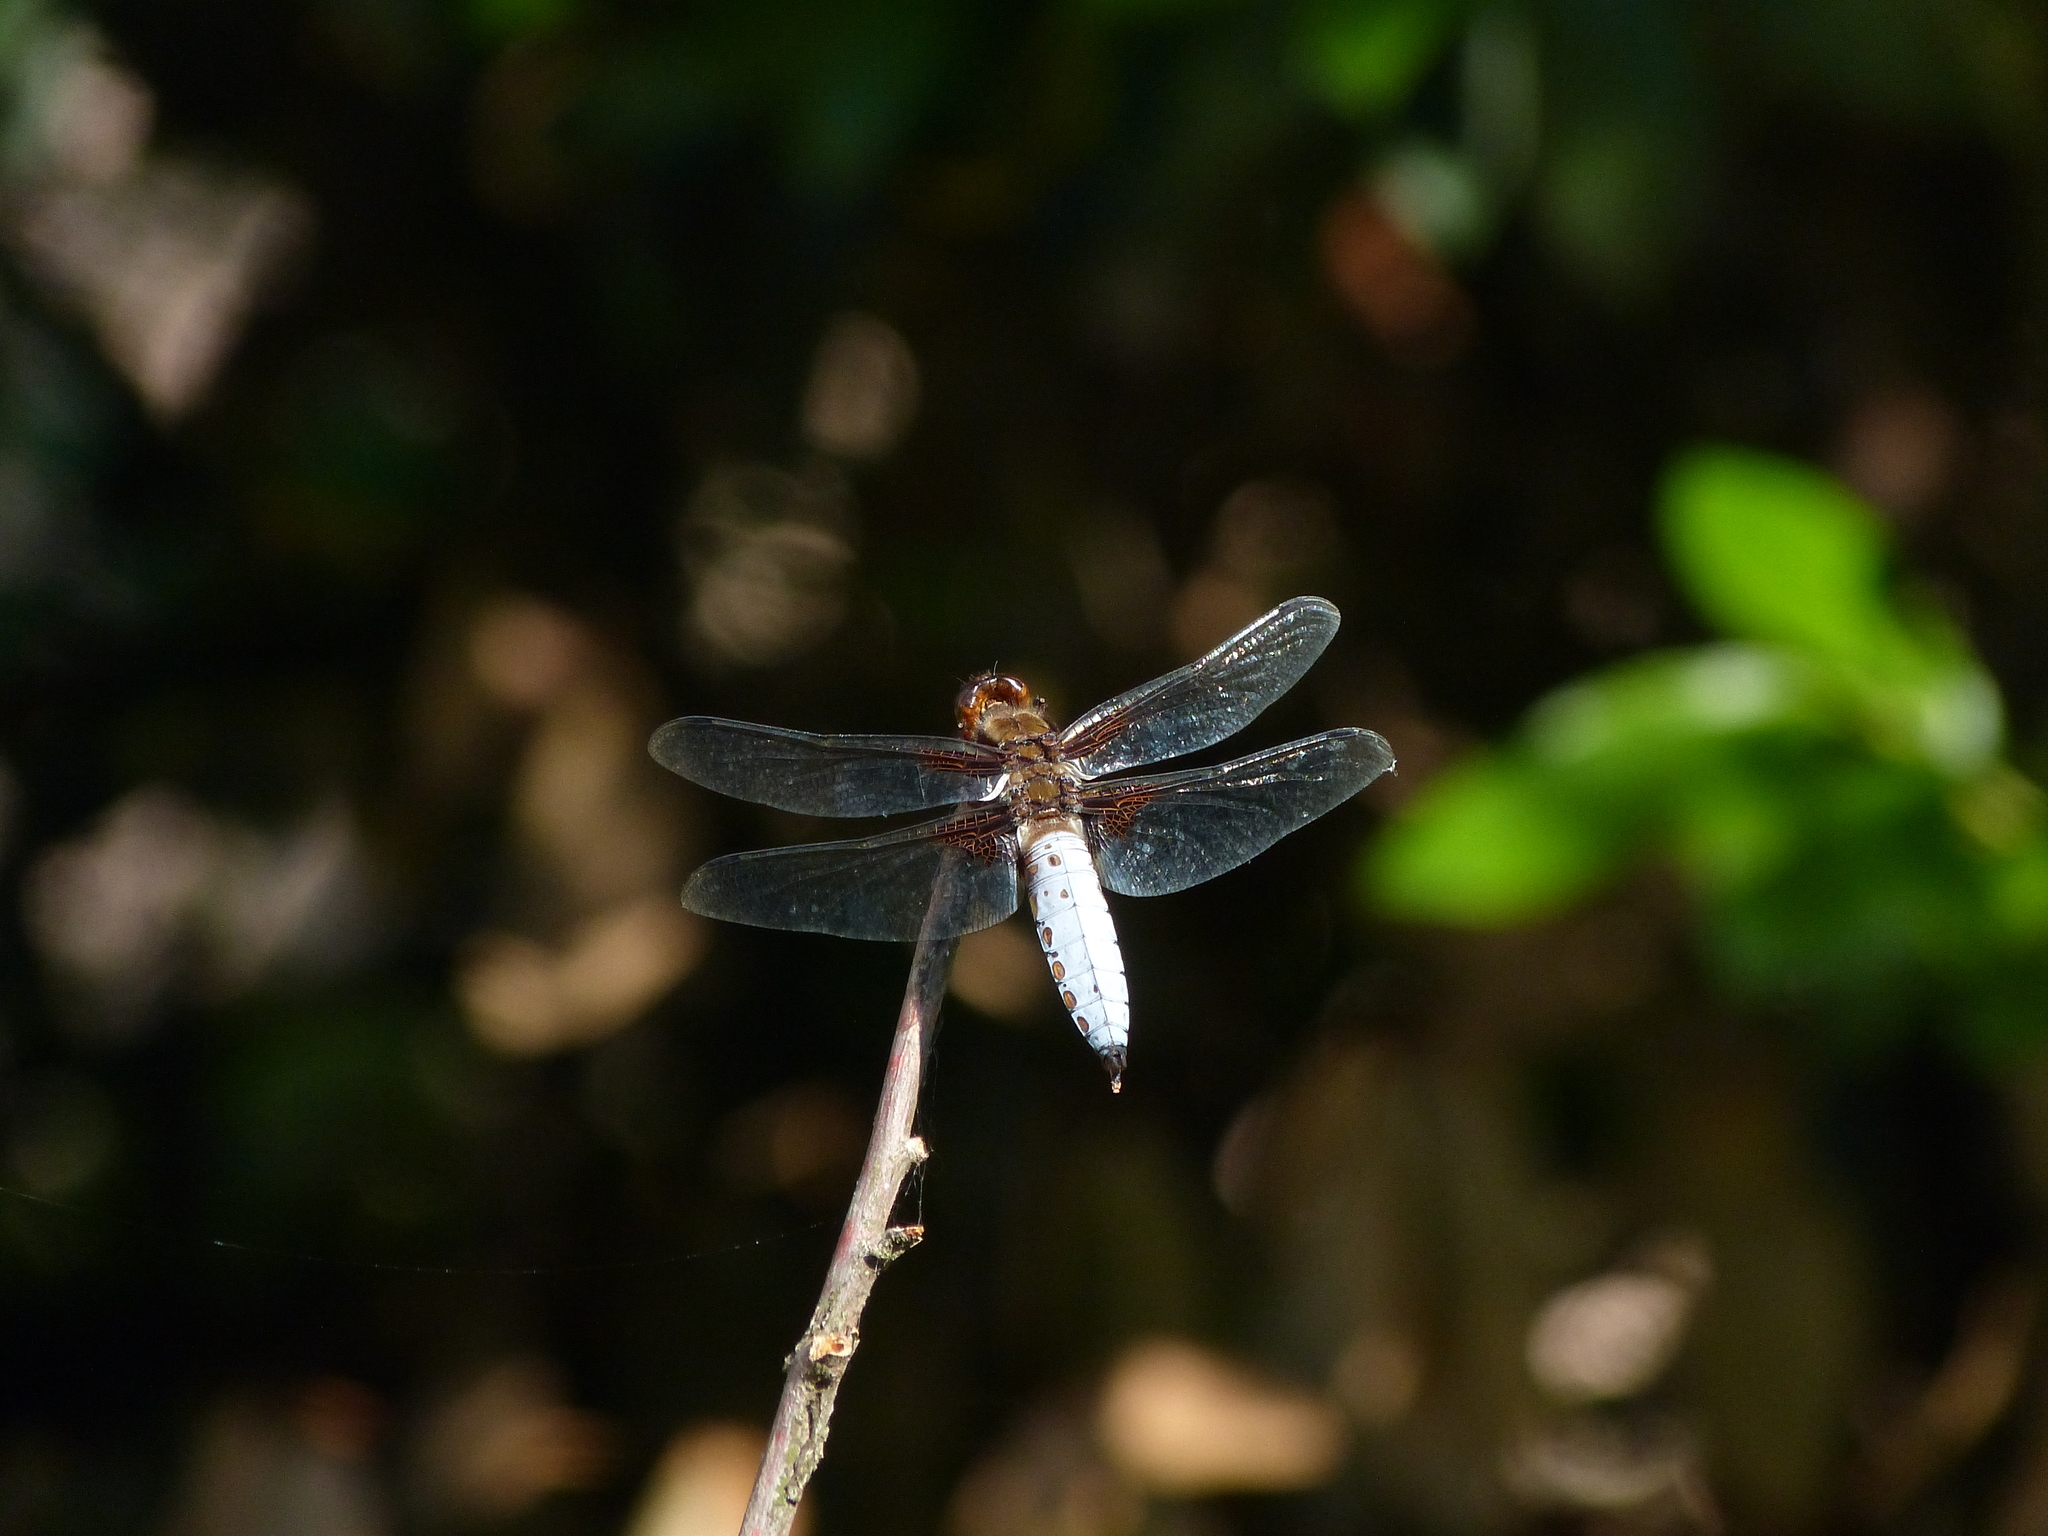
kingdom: Animalia
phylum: Arthropoda
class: Insecta
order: Odonata
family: Libellulidae
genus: Libellula
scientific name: Libellula depressa
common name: Broad-bodied chaser
